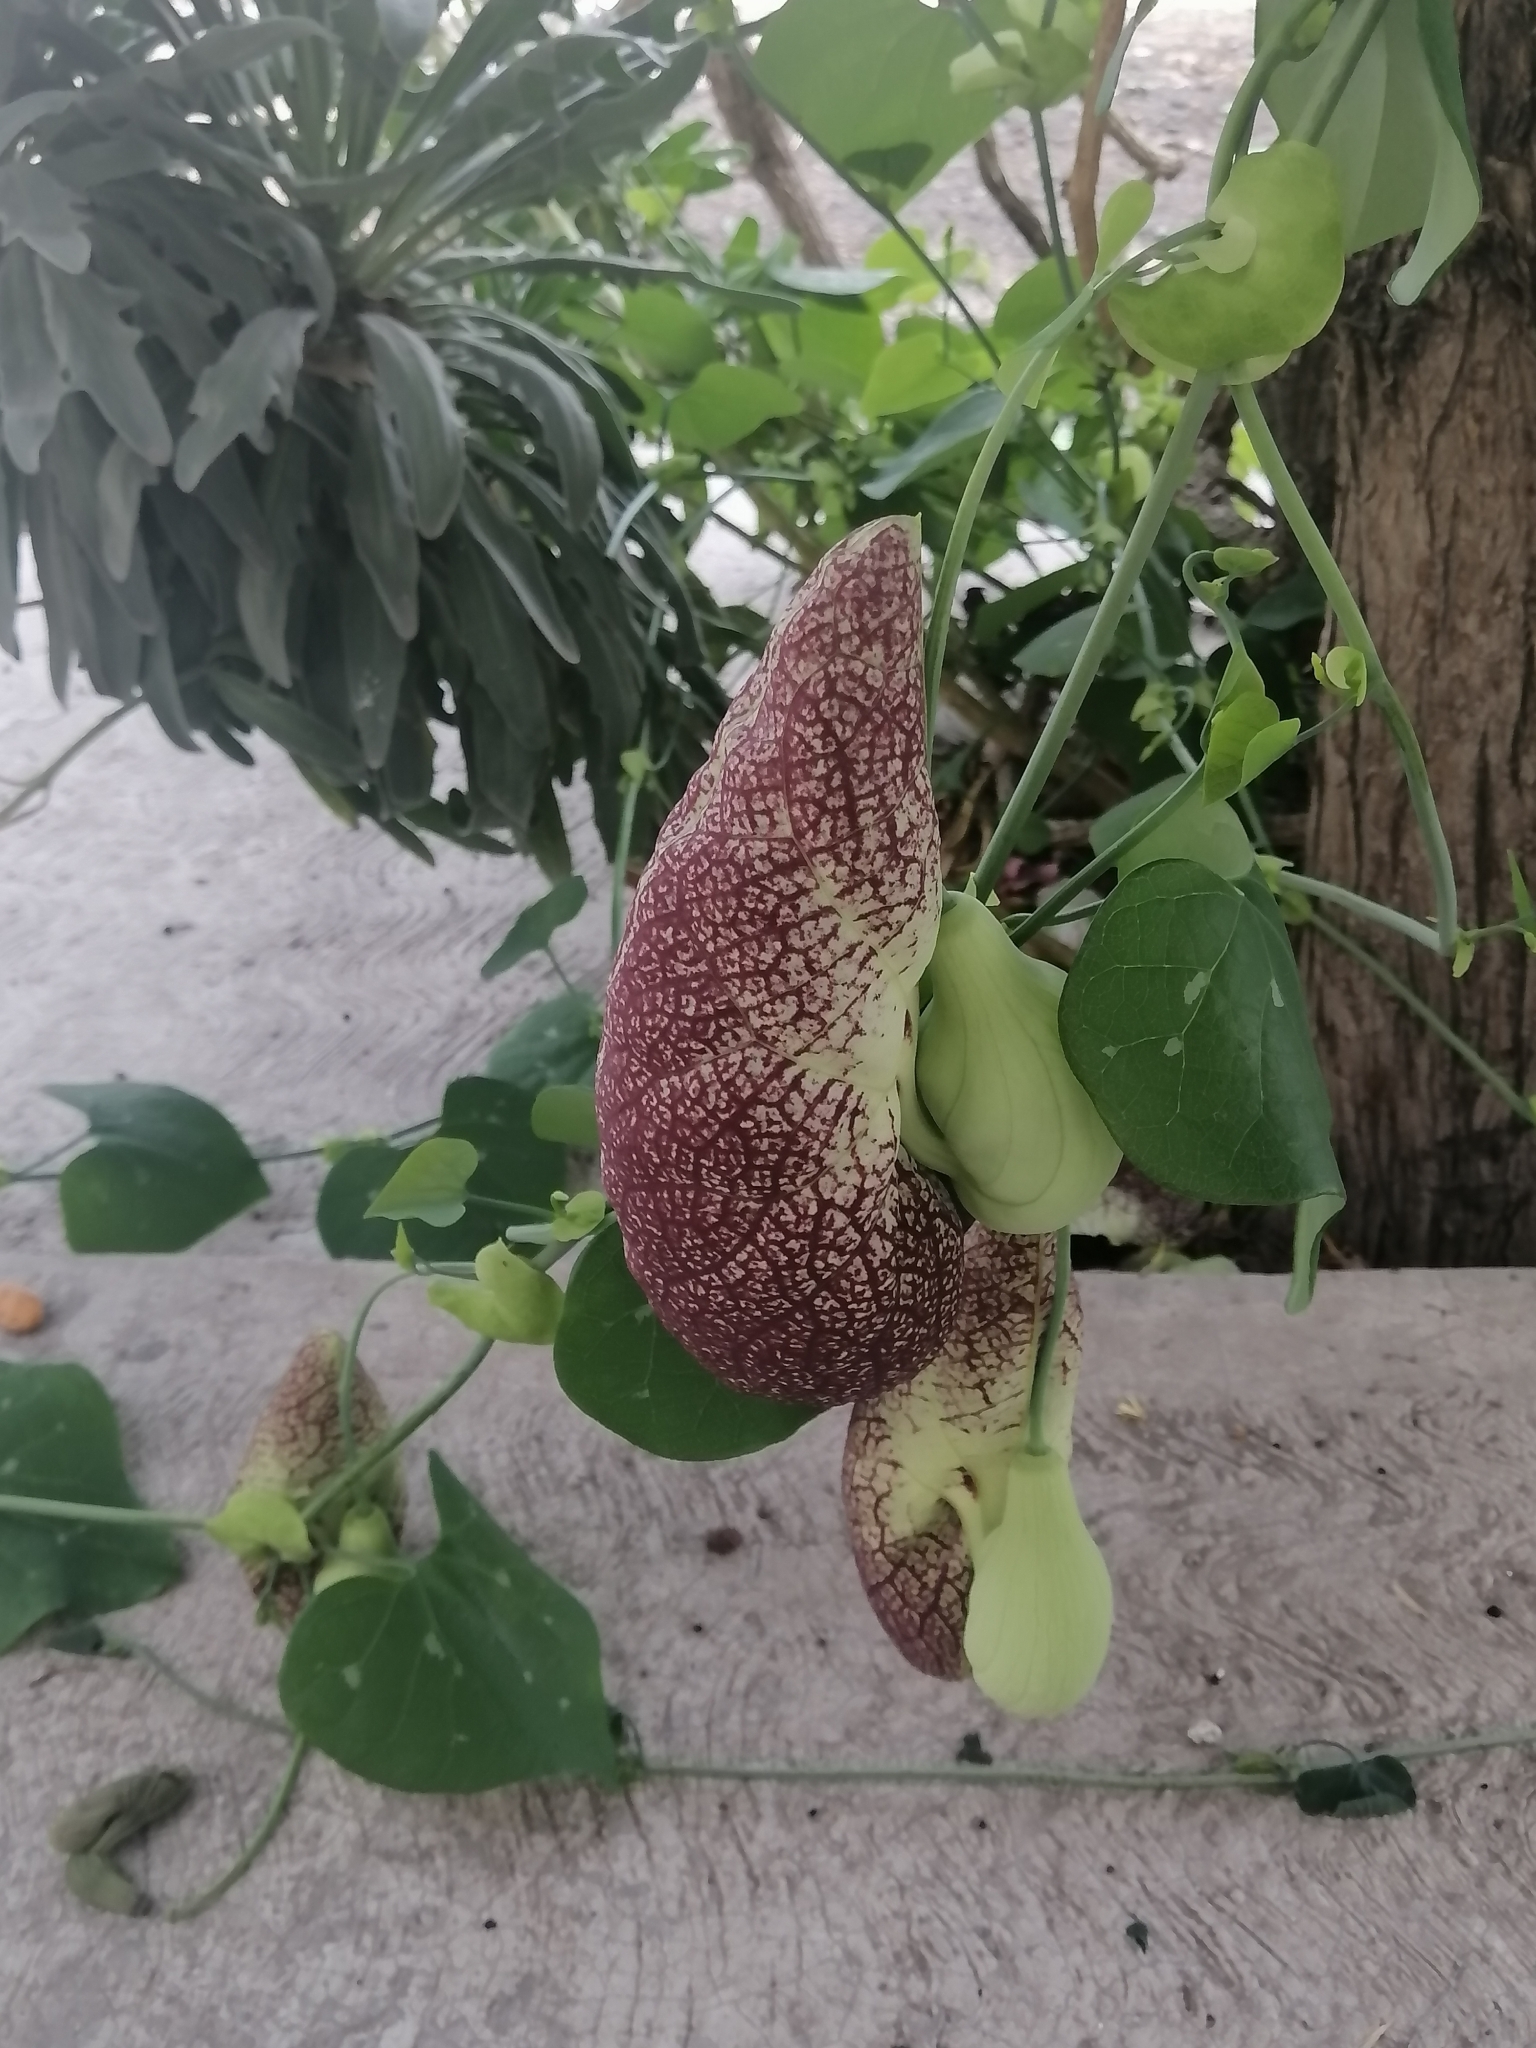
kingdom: Plantae
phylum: Tracheophyta
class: Magnoliopsida
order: Piperales
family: Aristolochiaceae
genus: Aristolochia
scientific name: Aristolochia littoralis
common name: Duck
